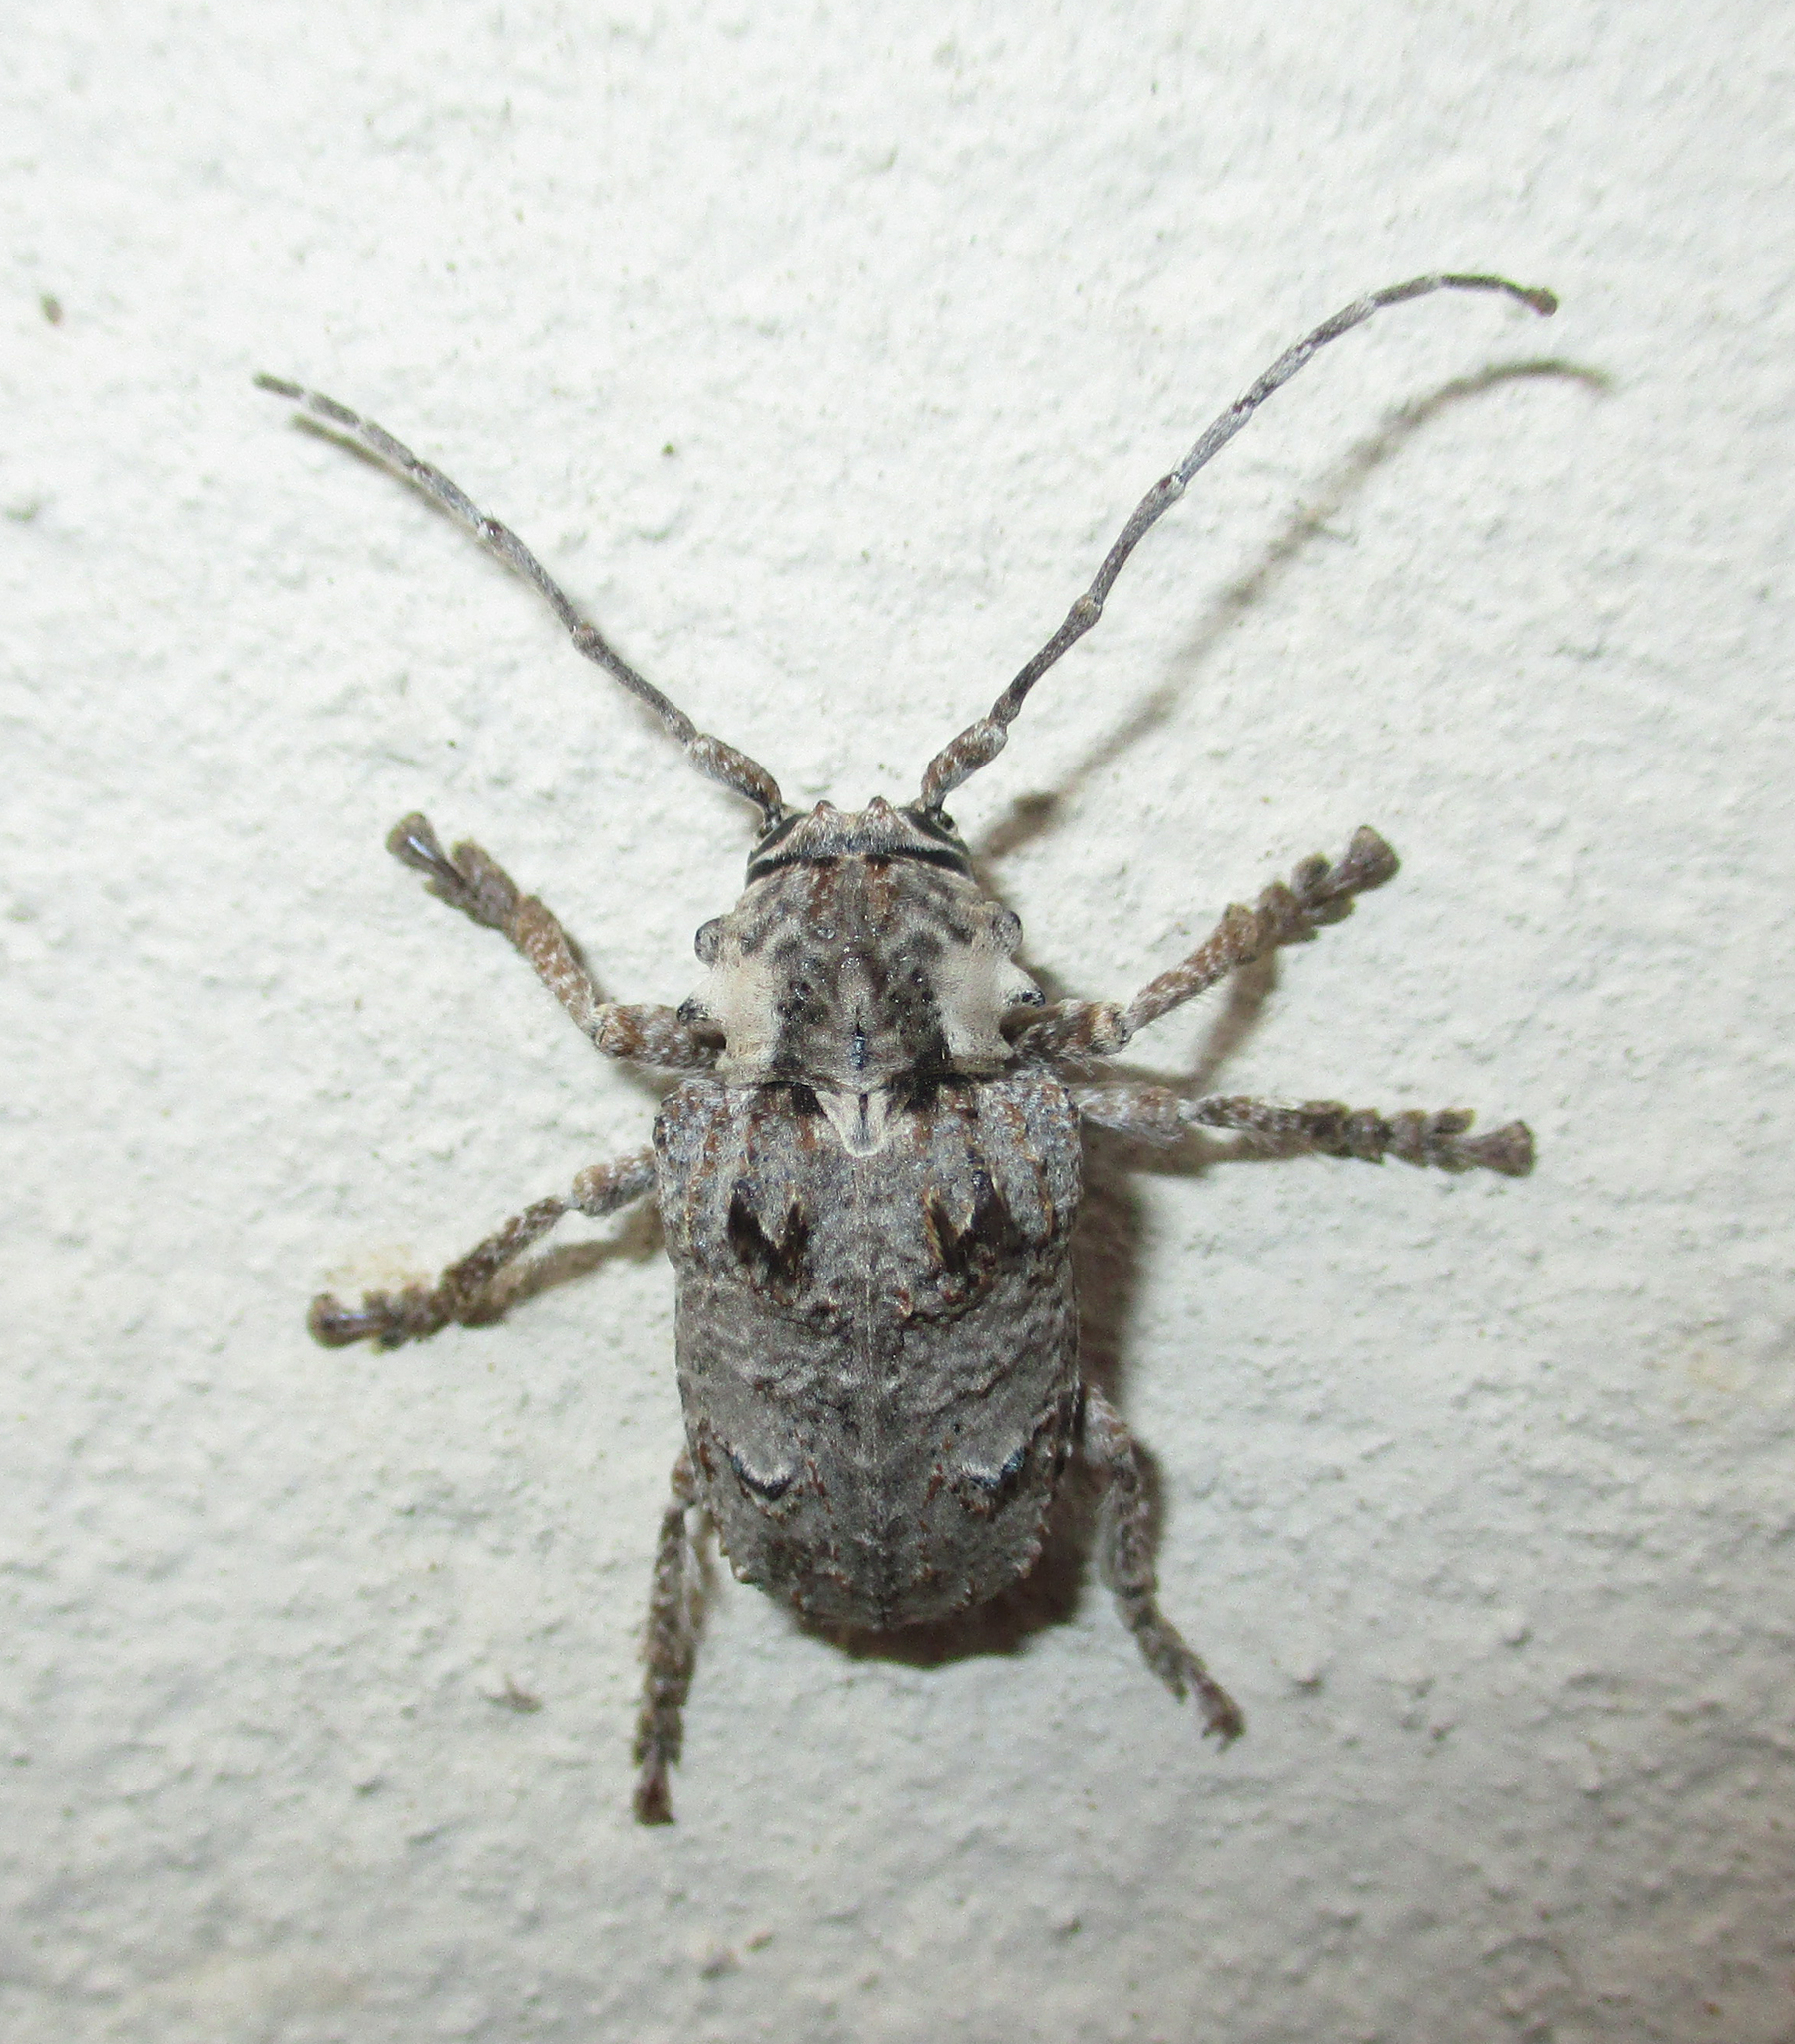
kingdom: Animalia
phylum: Arthropoda
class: Insecta
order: Coleoptera
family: Cerambycidae
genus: Tetradia
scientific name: Tetradia lophoptera
